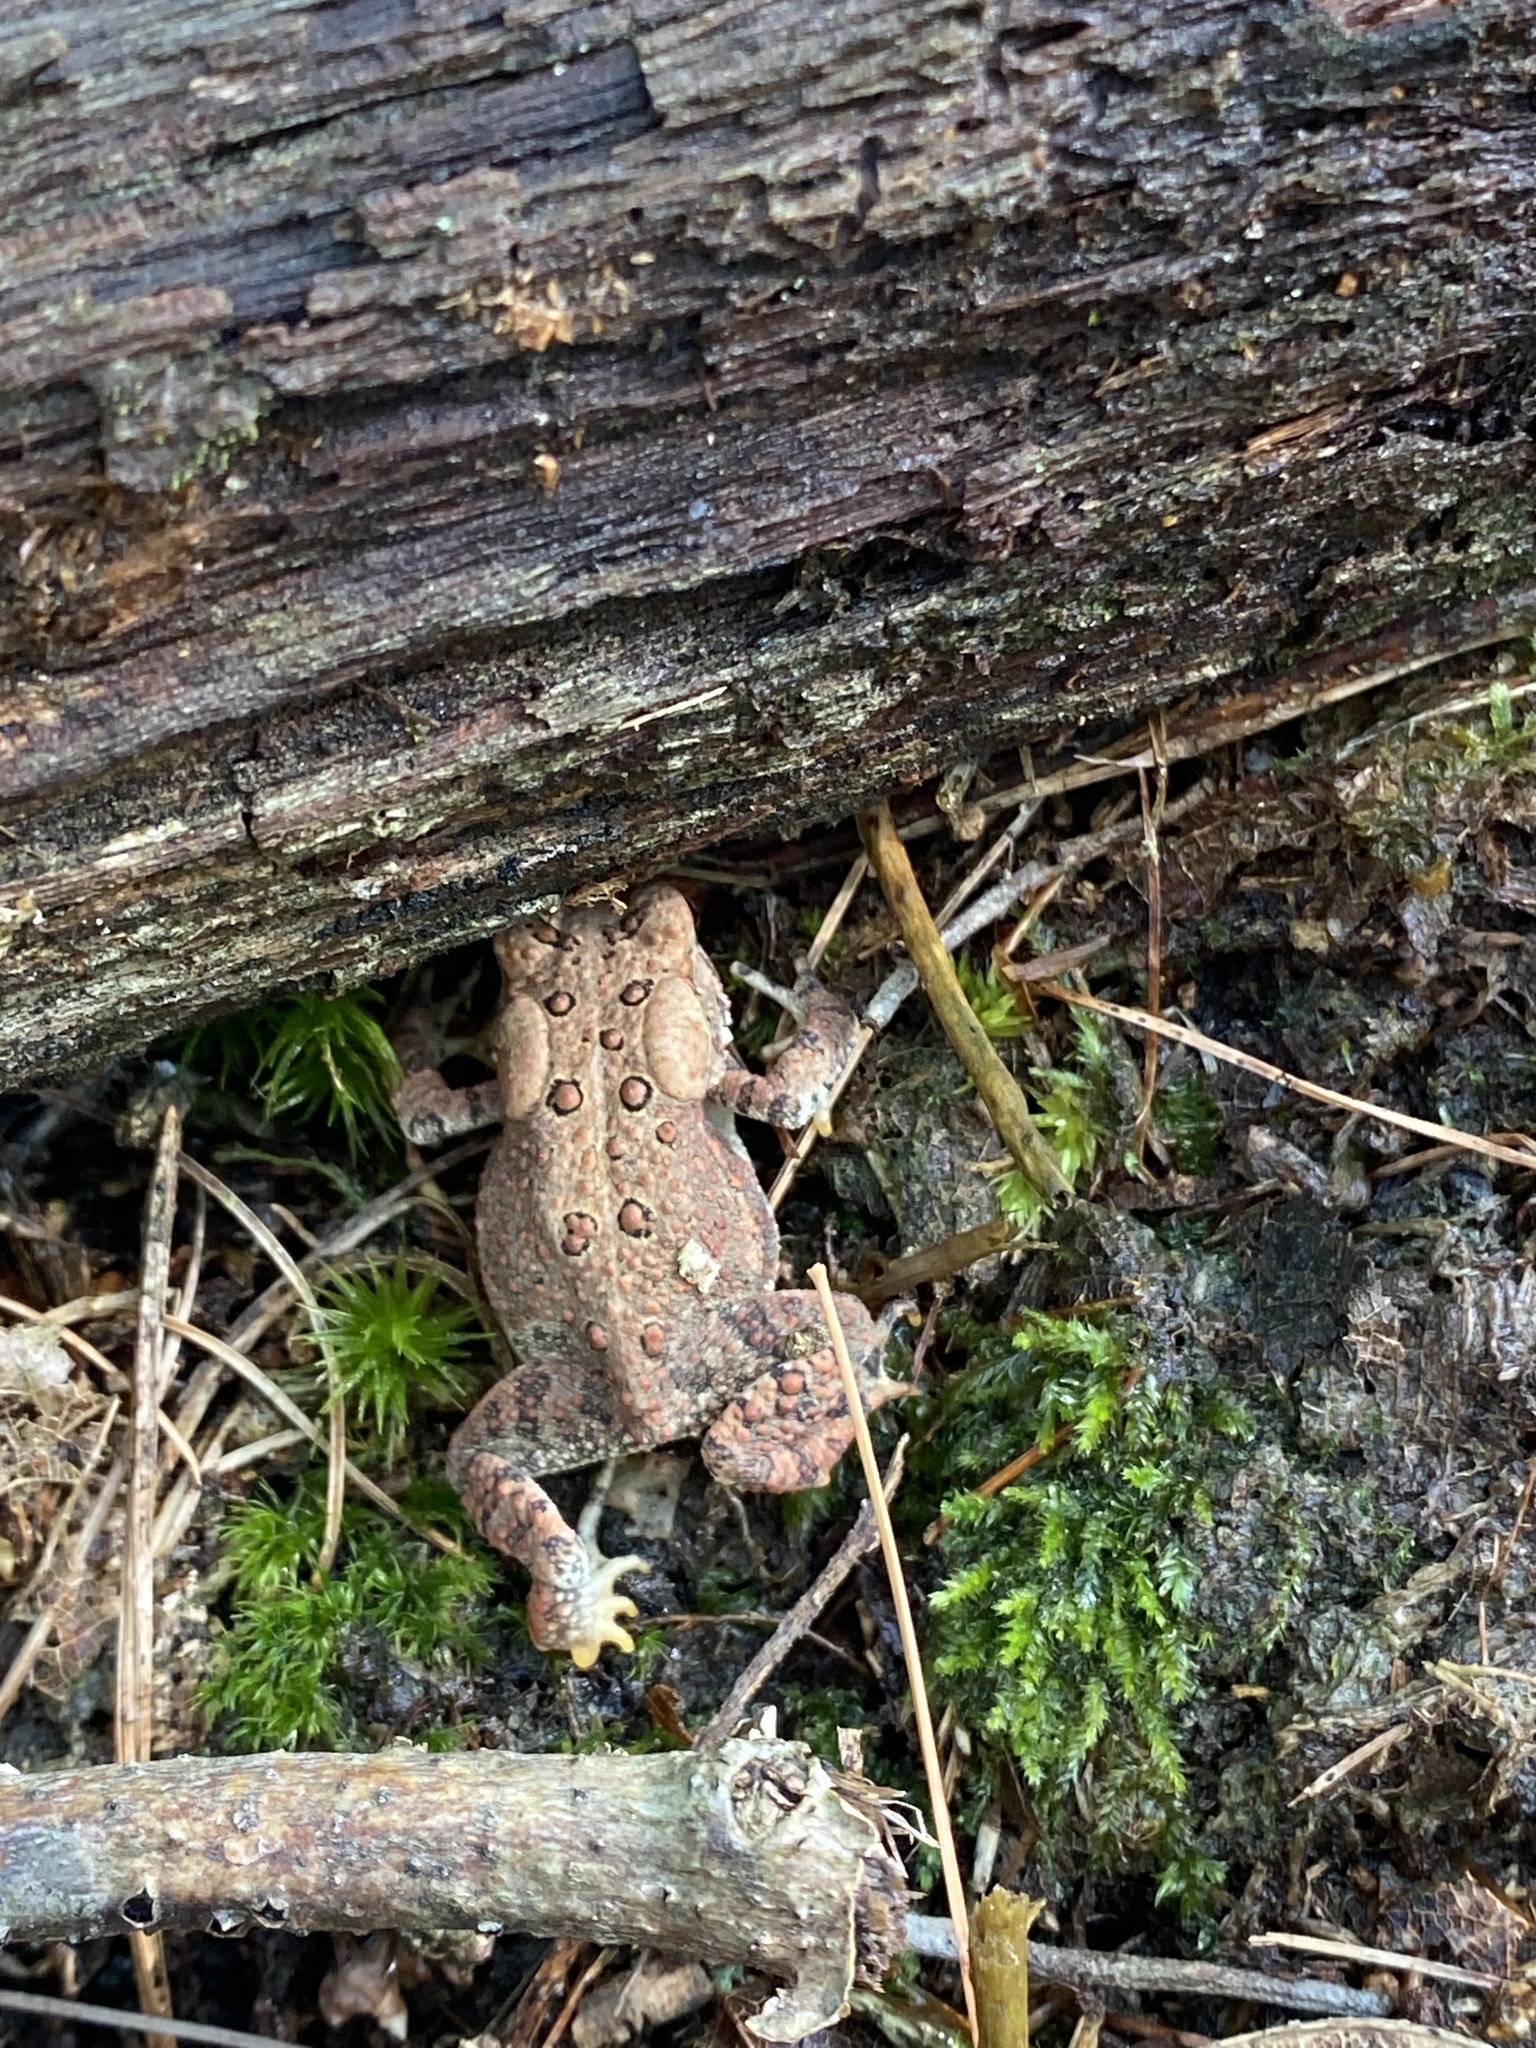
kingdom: Animalia
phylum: Chordata
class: Amphibia
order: Anura
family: Bufonidae
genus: Anaxyrus
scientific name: Anaxyrus americanus
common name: American toad
